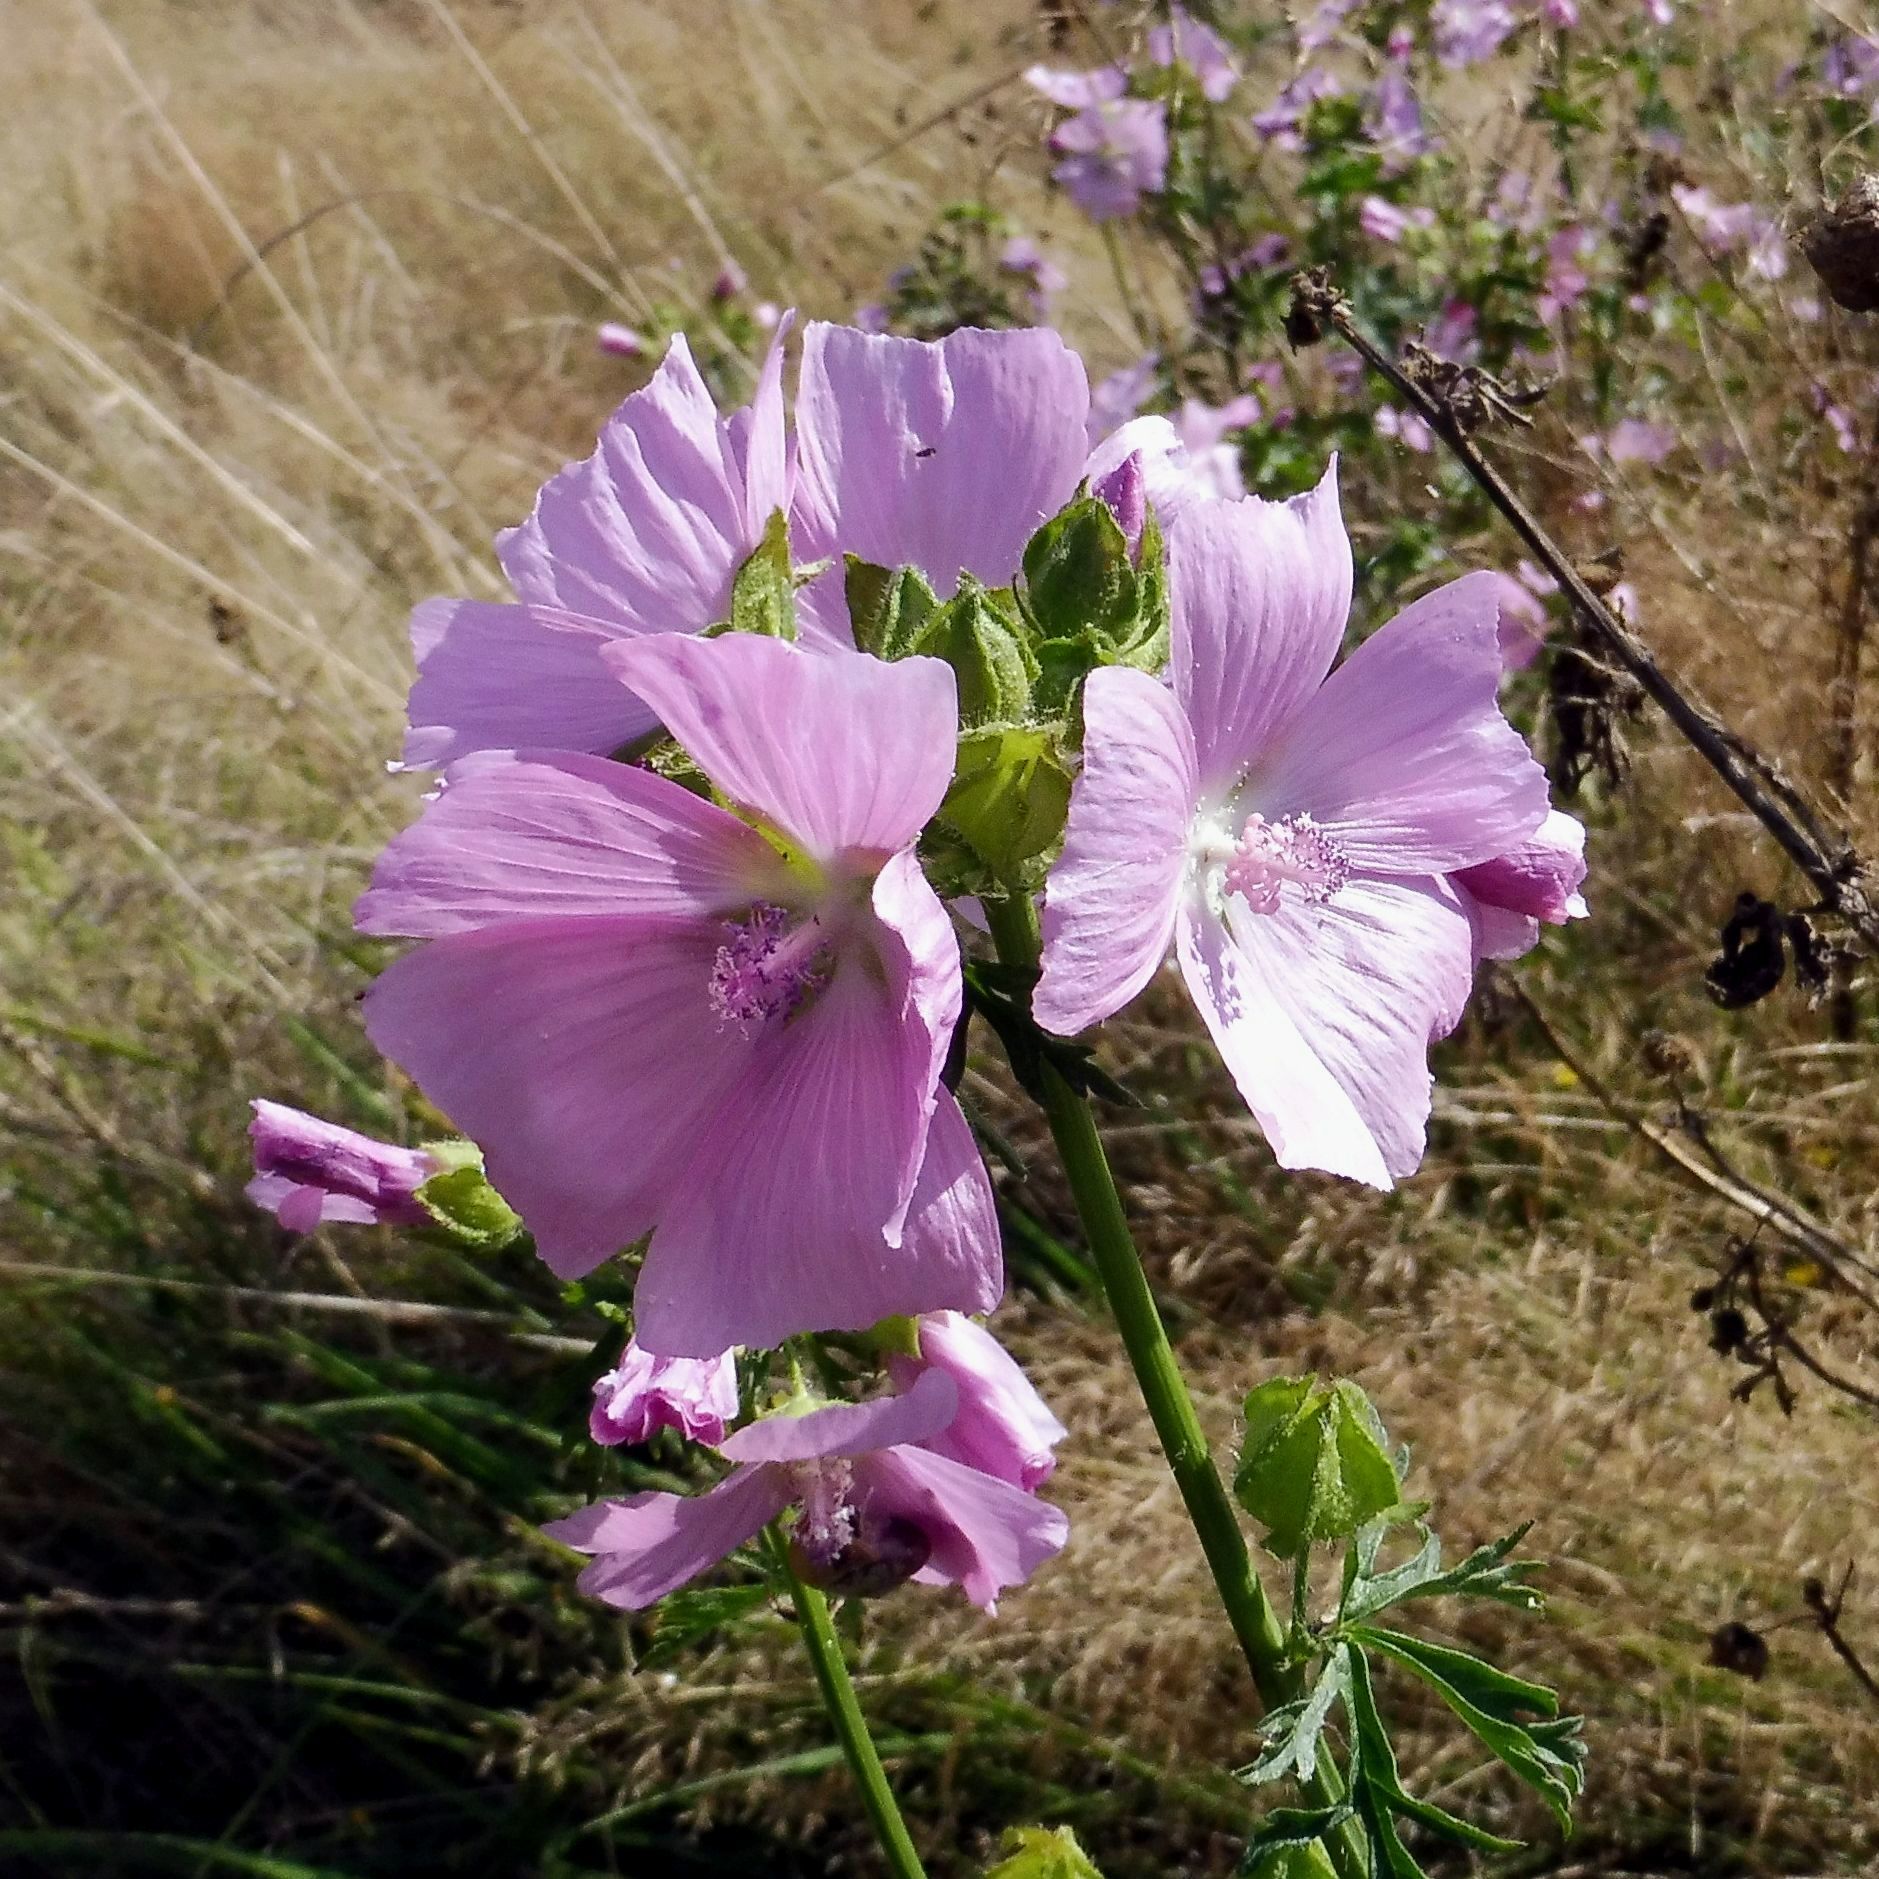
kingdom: Plantae
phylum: Tracheophyta
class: Magnoliopsida
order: Malvales
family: Malvaceae
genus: Malva
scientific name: Malva moschata
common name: Musk mallow
